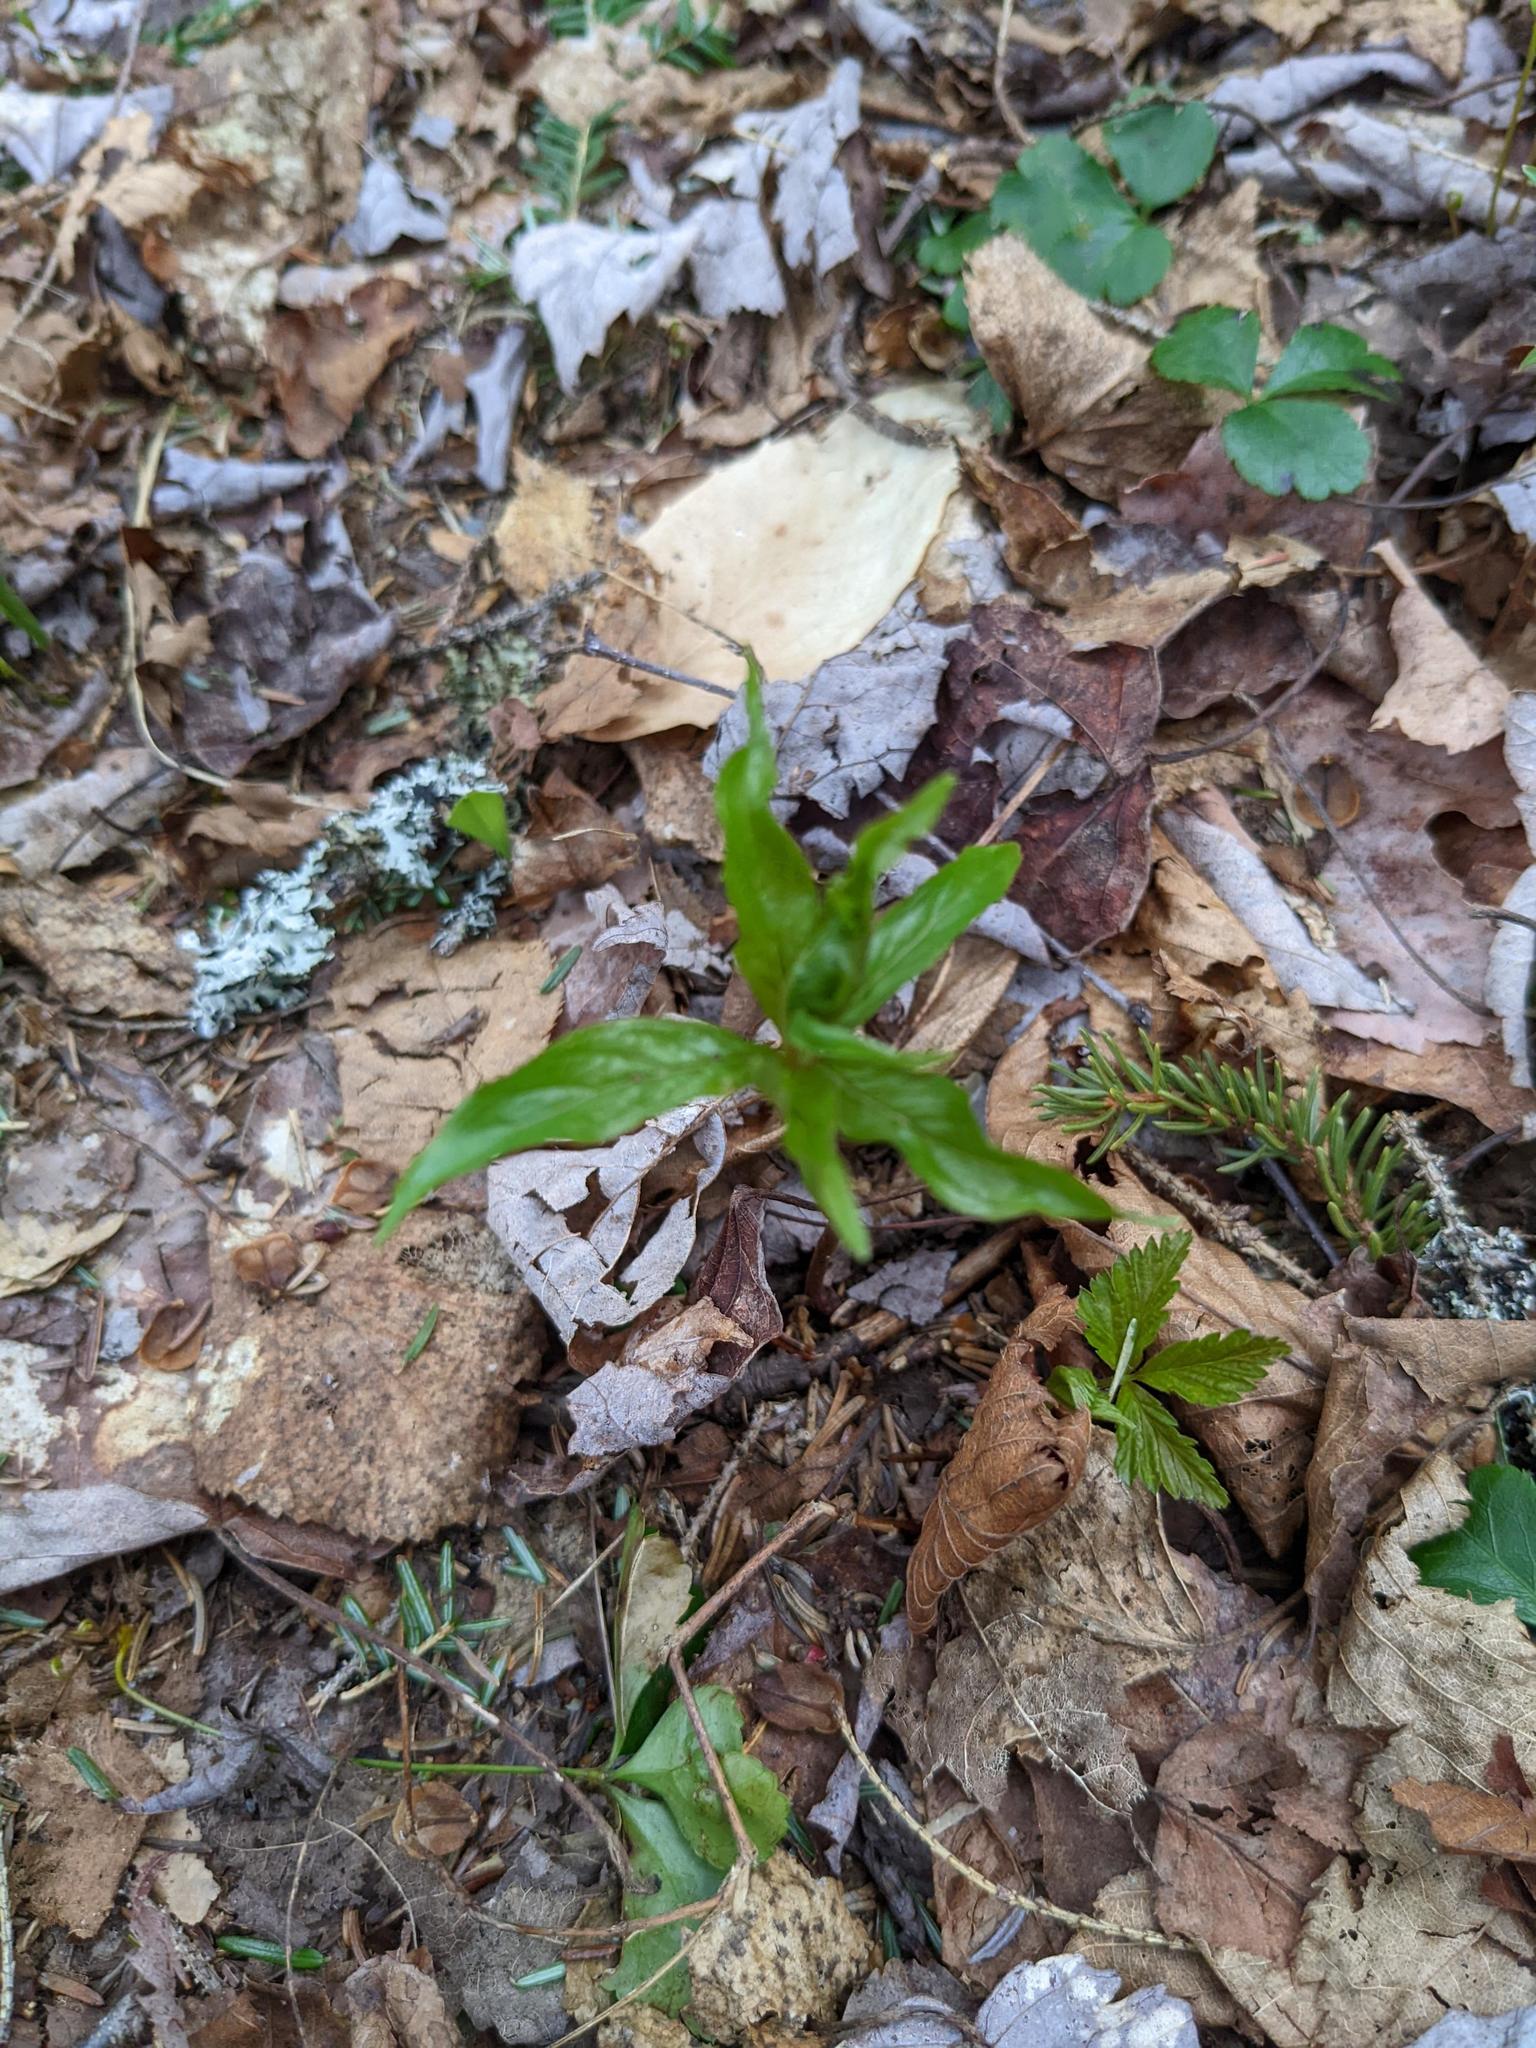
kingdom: Plantae
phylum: Tracheophyta
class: Magnoliopsida
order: Ericales
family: Primulaceae
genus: Lysimachia
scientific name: Lysimachia borealis
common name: American starflower
